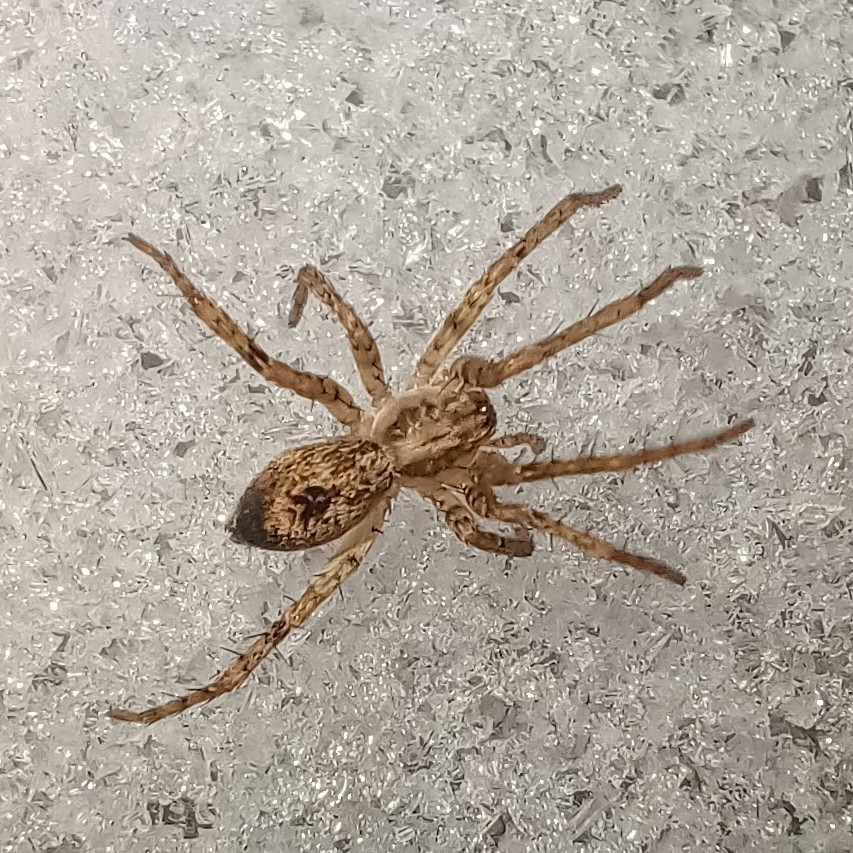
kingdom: Animalia
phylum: Arthropoda
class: Arachnida
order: Araneae
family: Anyphaenidae
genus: Anyphaena
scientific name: Anyphaena accentuata
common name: Buzzing spider
